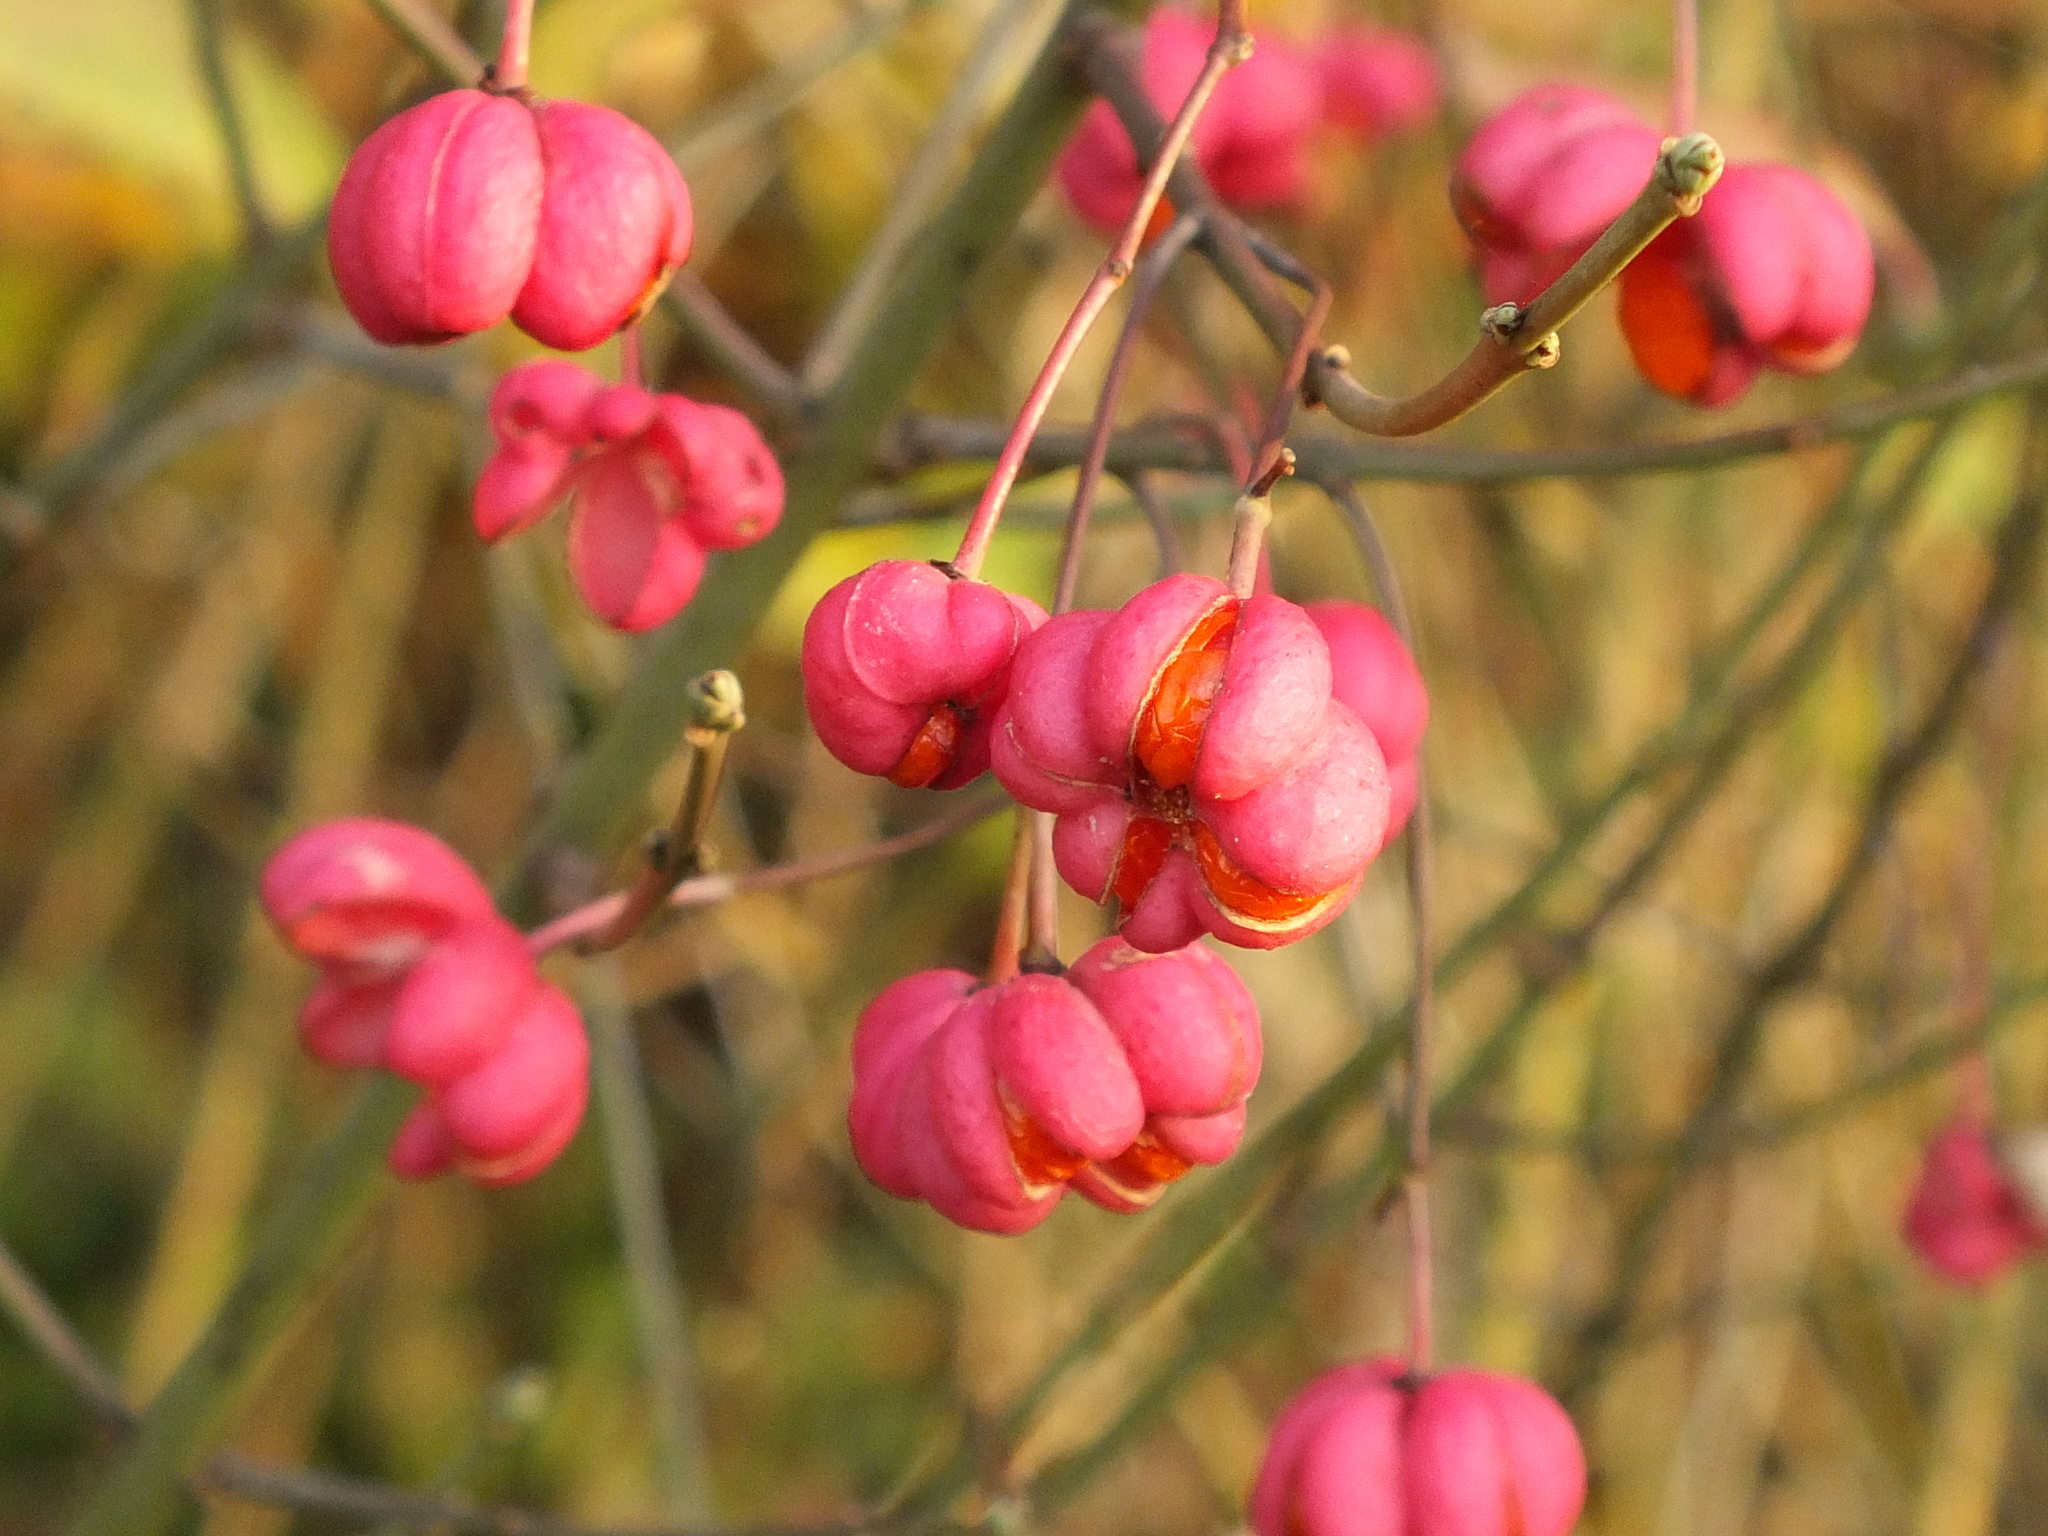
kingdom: Plantae
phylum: Tracheophyta
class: Magnoliopsida
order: Celastrales
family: Celastraceae
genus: Euonymus
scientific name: Euonymus europaeus
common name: Spindle
